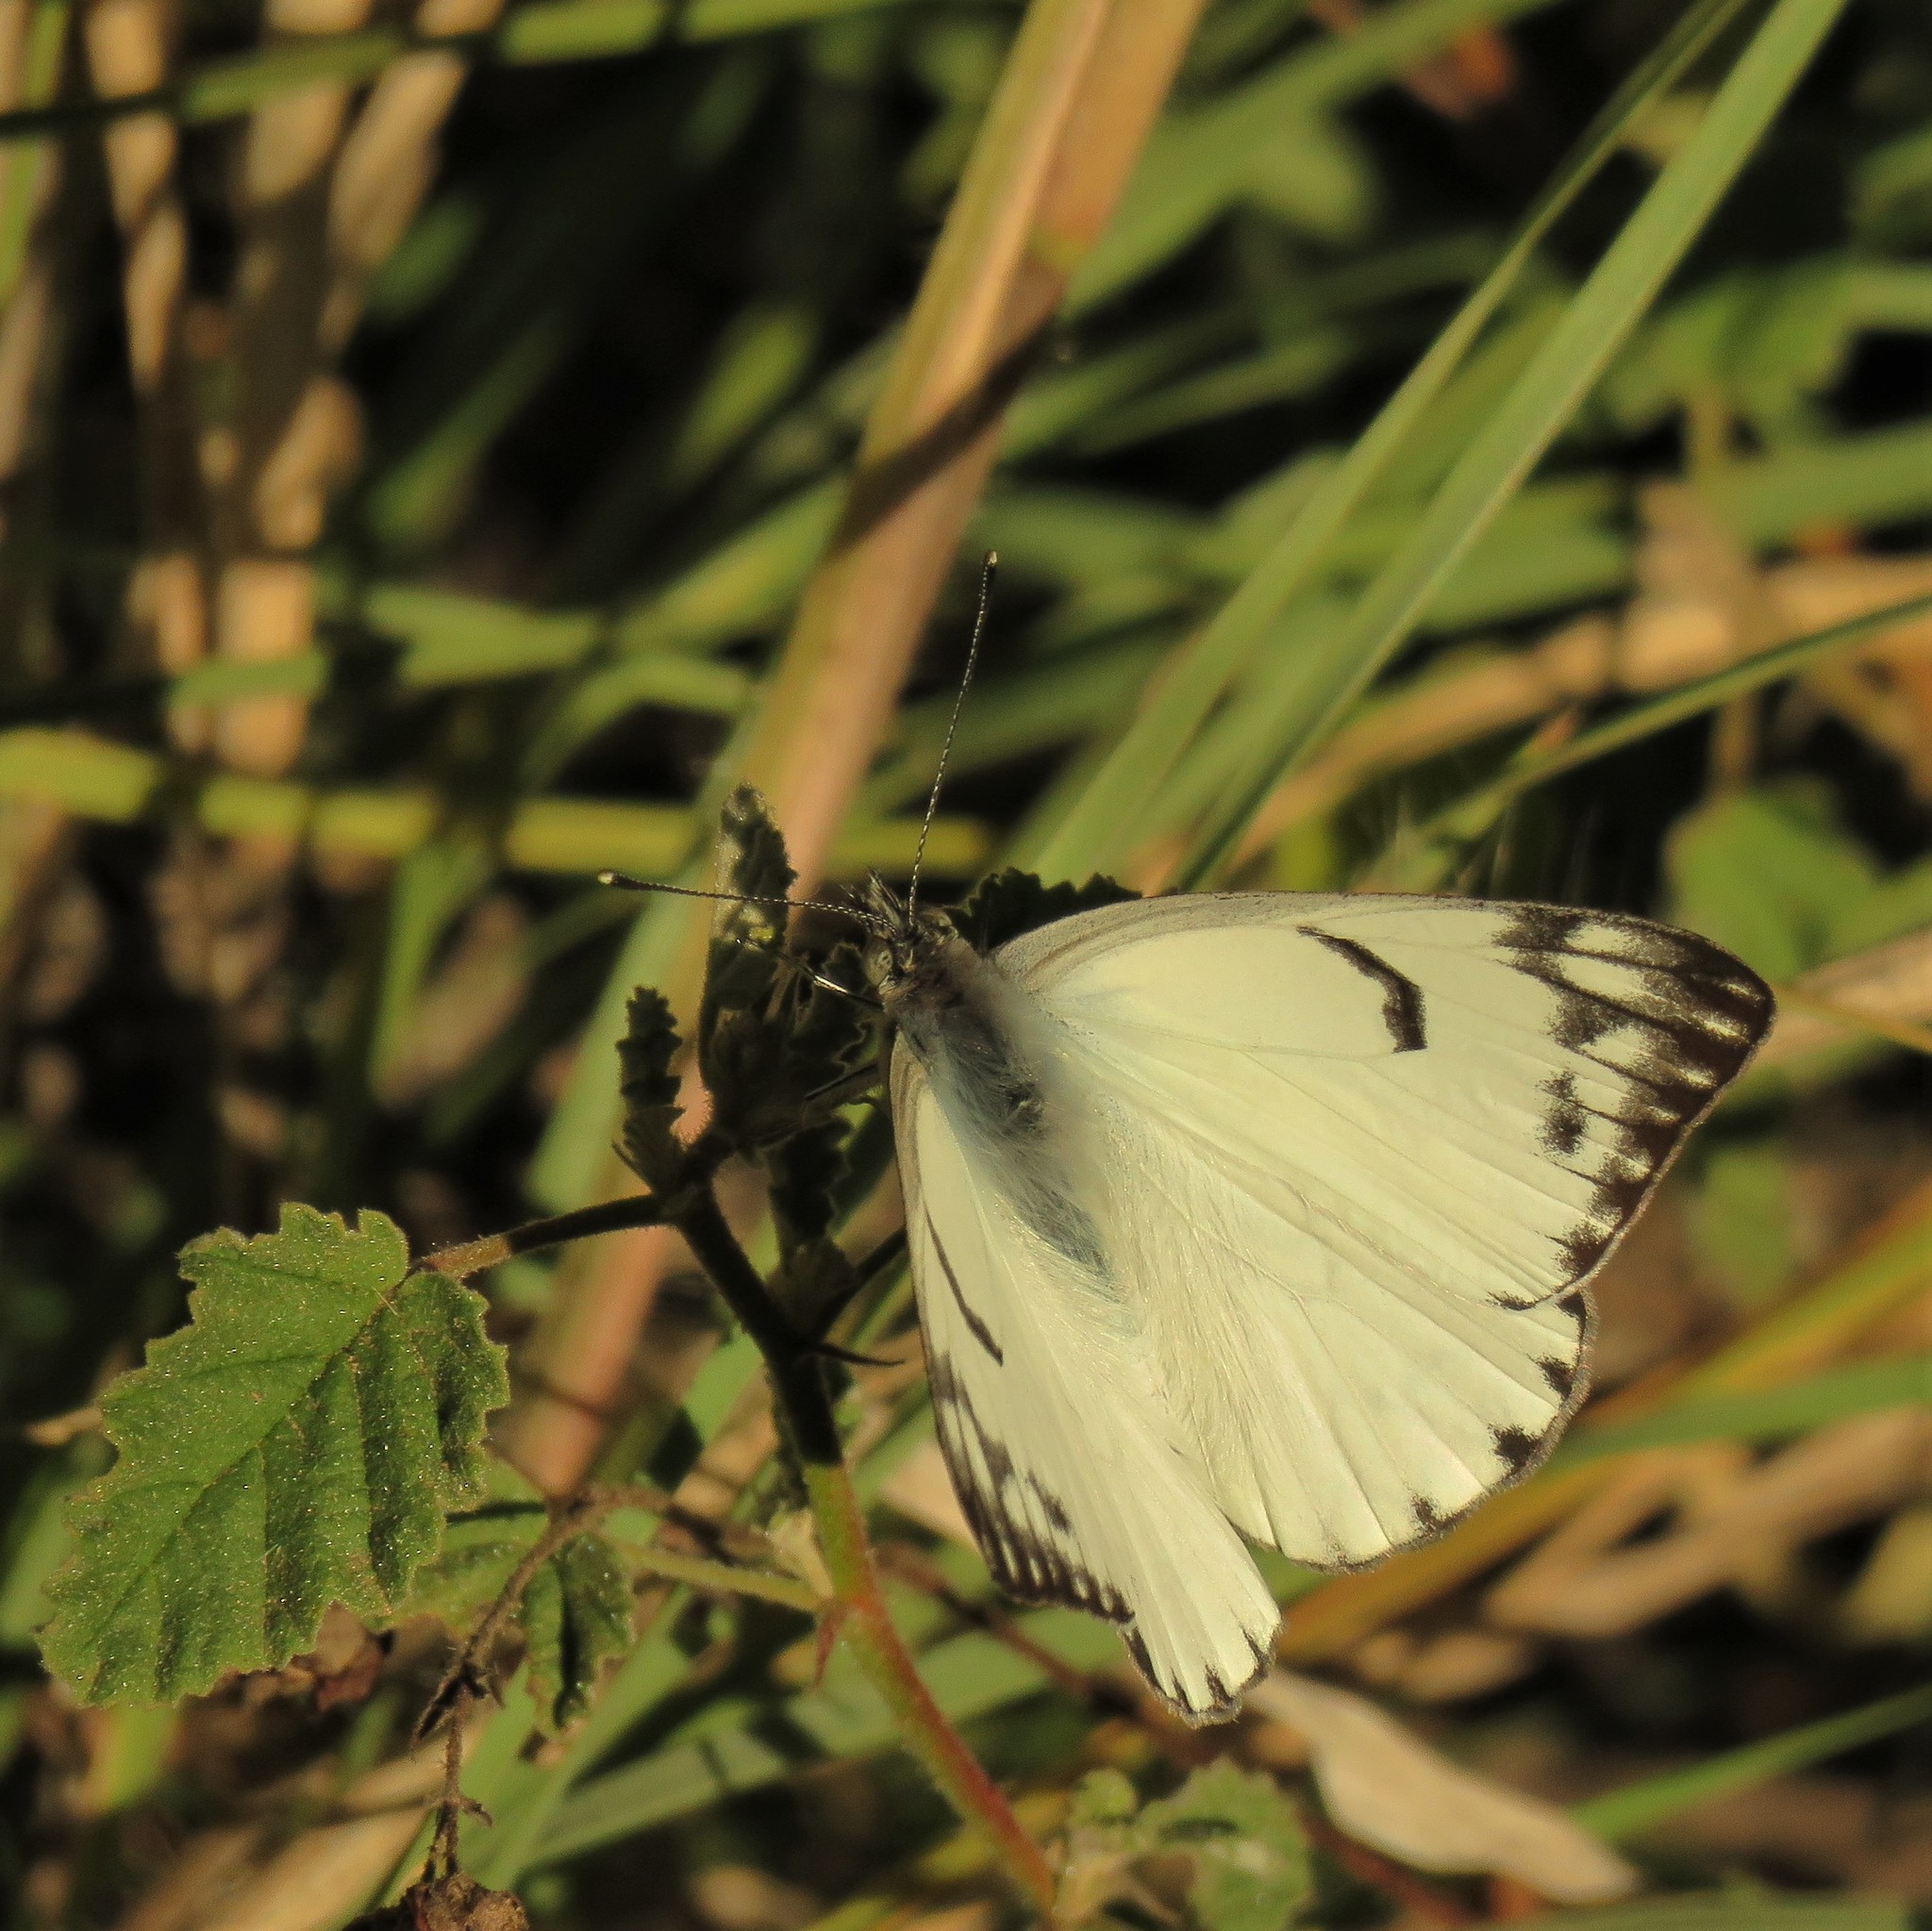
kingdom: Animalia
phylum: Arthropoda
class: Insecta
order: Lepidoptera
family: Pieridae
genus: Belenois
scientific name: Belenois gidica
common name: Pointed caper white
